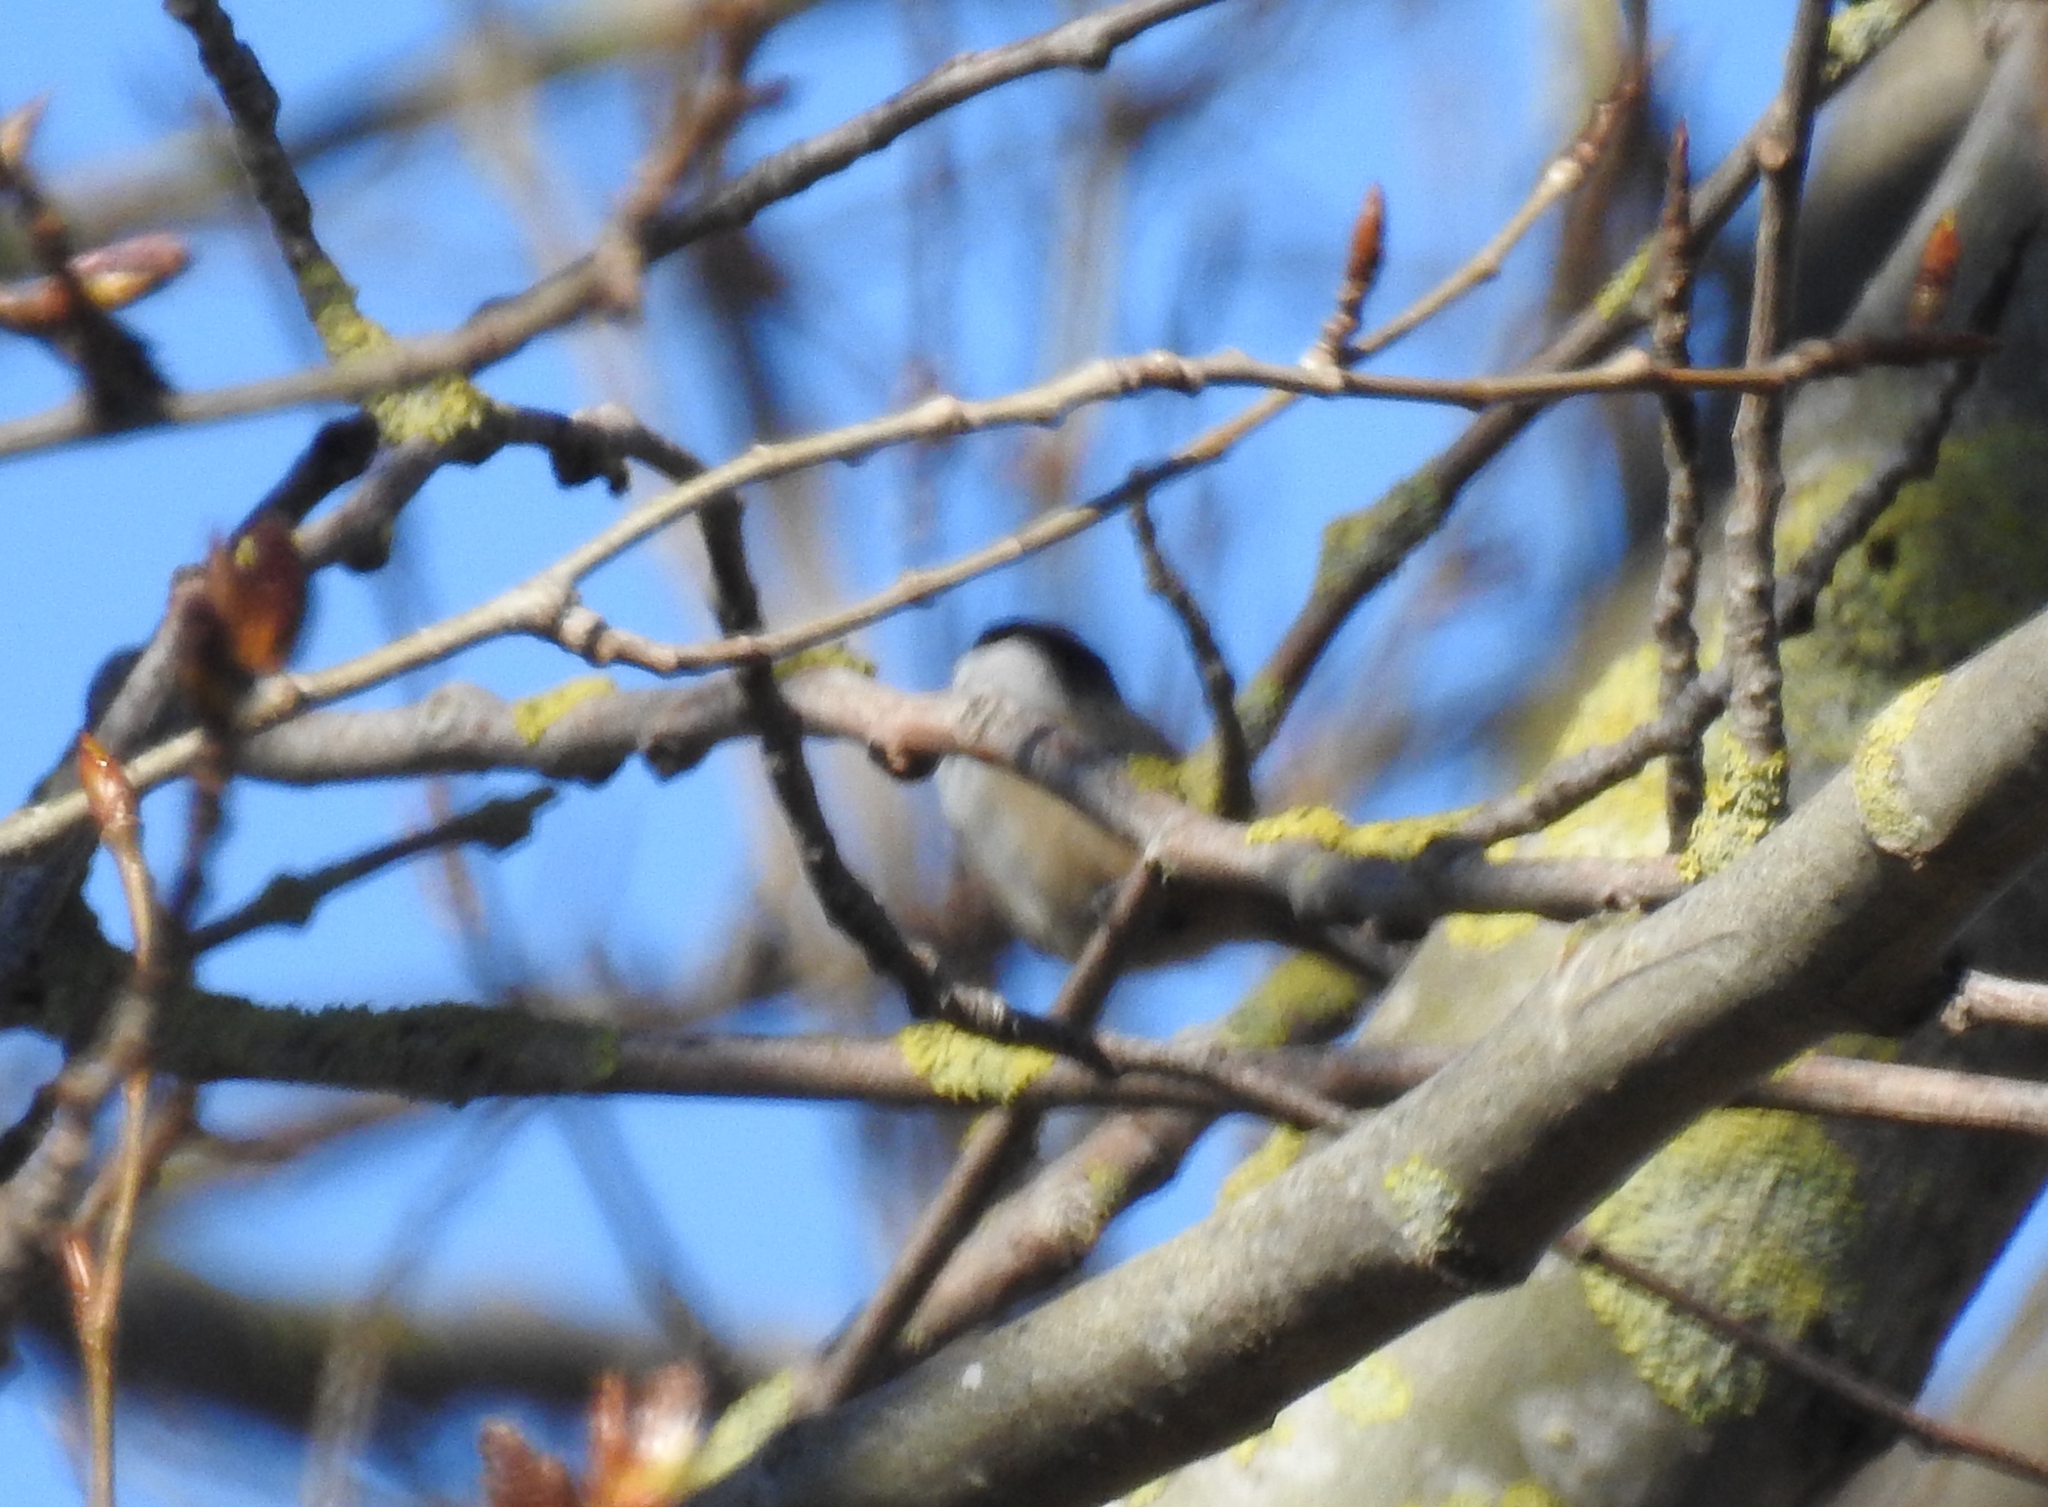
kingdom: Animalia
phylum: Chordata
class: Aves
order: Passeriformes
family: Paridae
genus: Poecile
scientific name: Poecile atricapillus
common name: Black-capped chickadee
